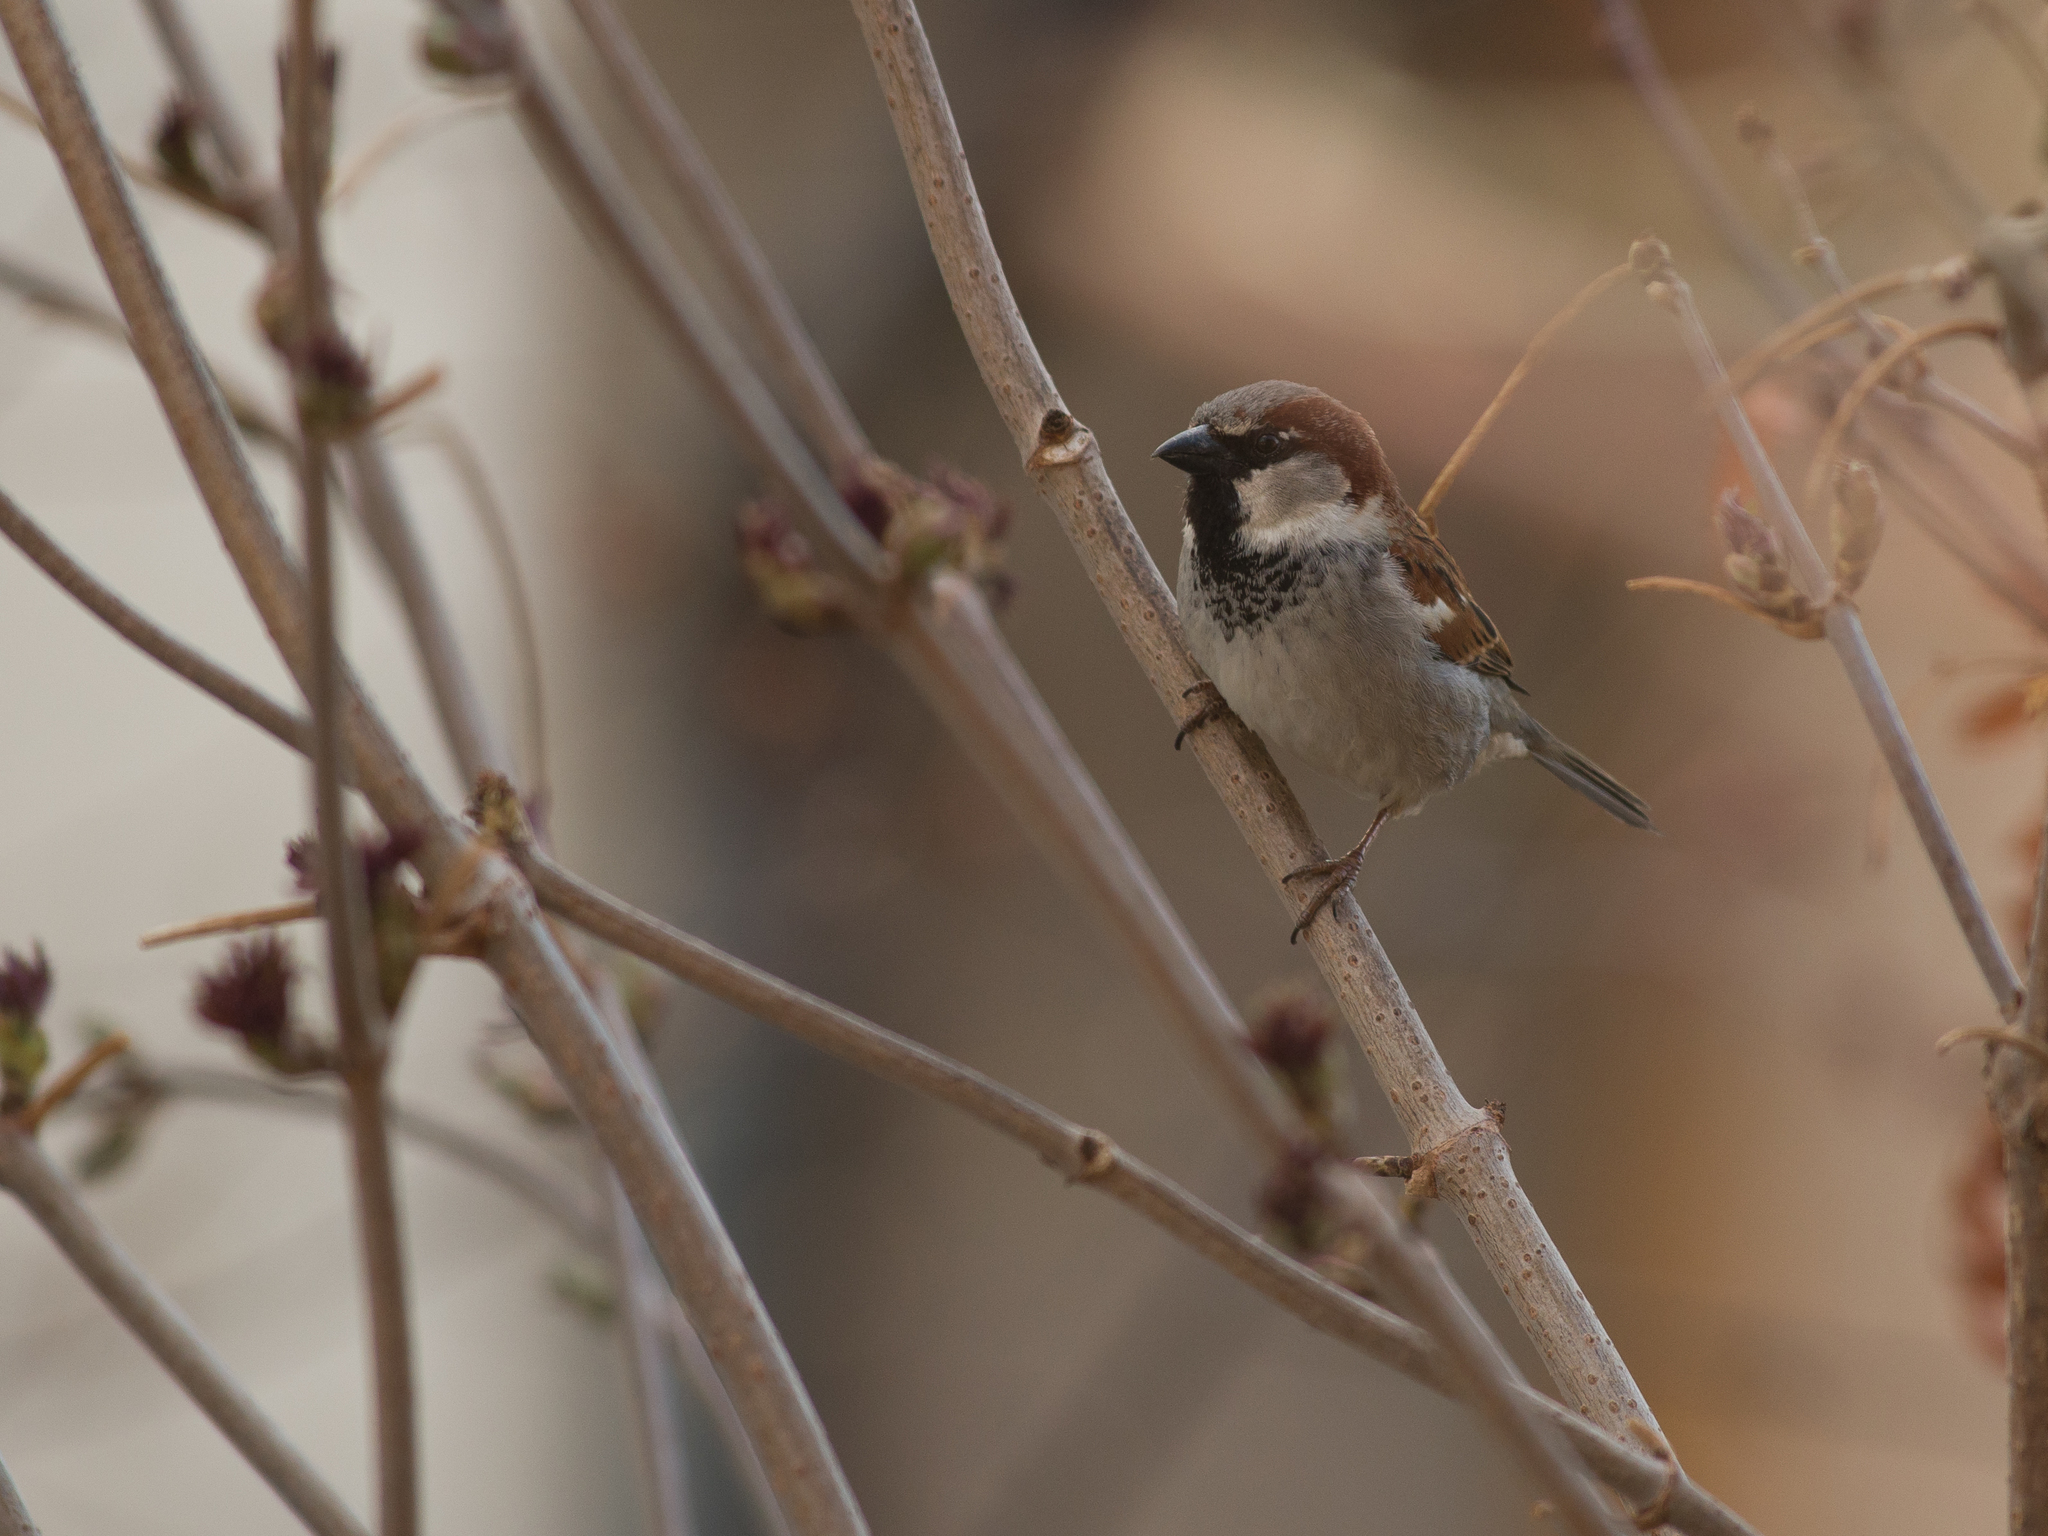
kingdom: Animalia
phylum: Chordata
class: Aves
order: Passeriformes
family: Passeridae
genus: Passer
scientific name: Passer domesticus
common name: House sparrow
